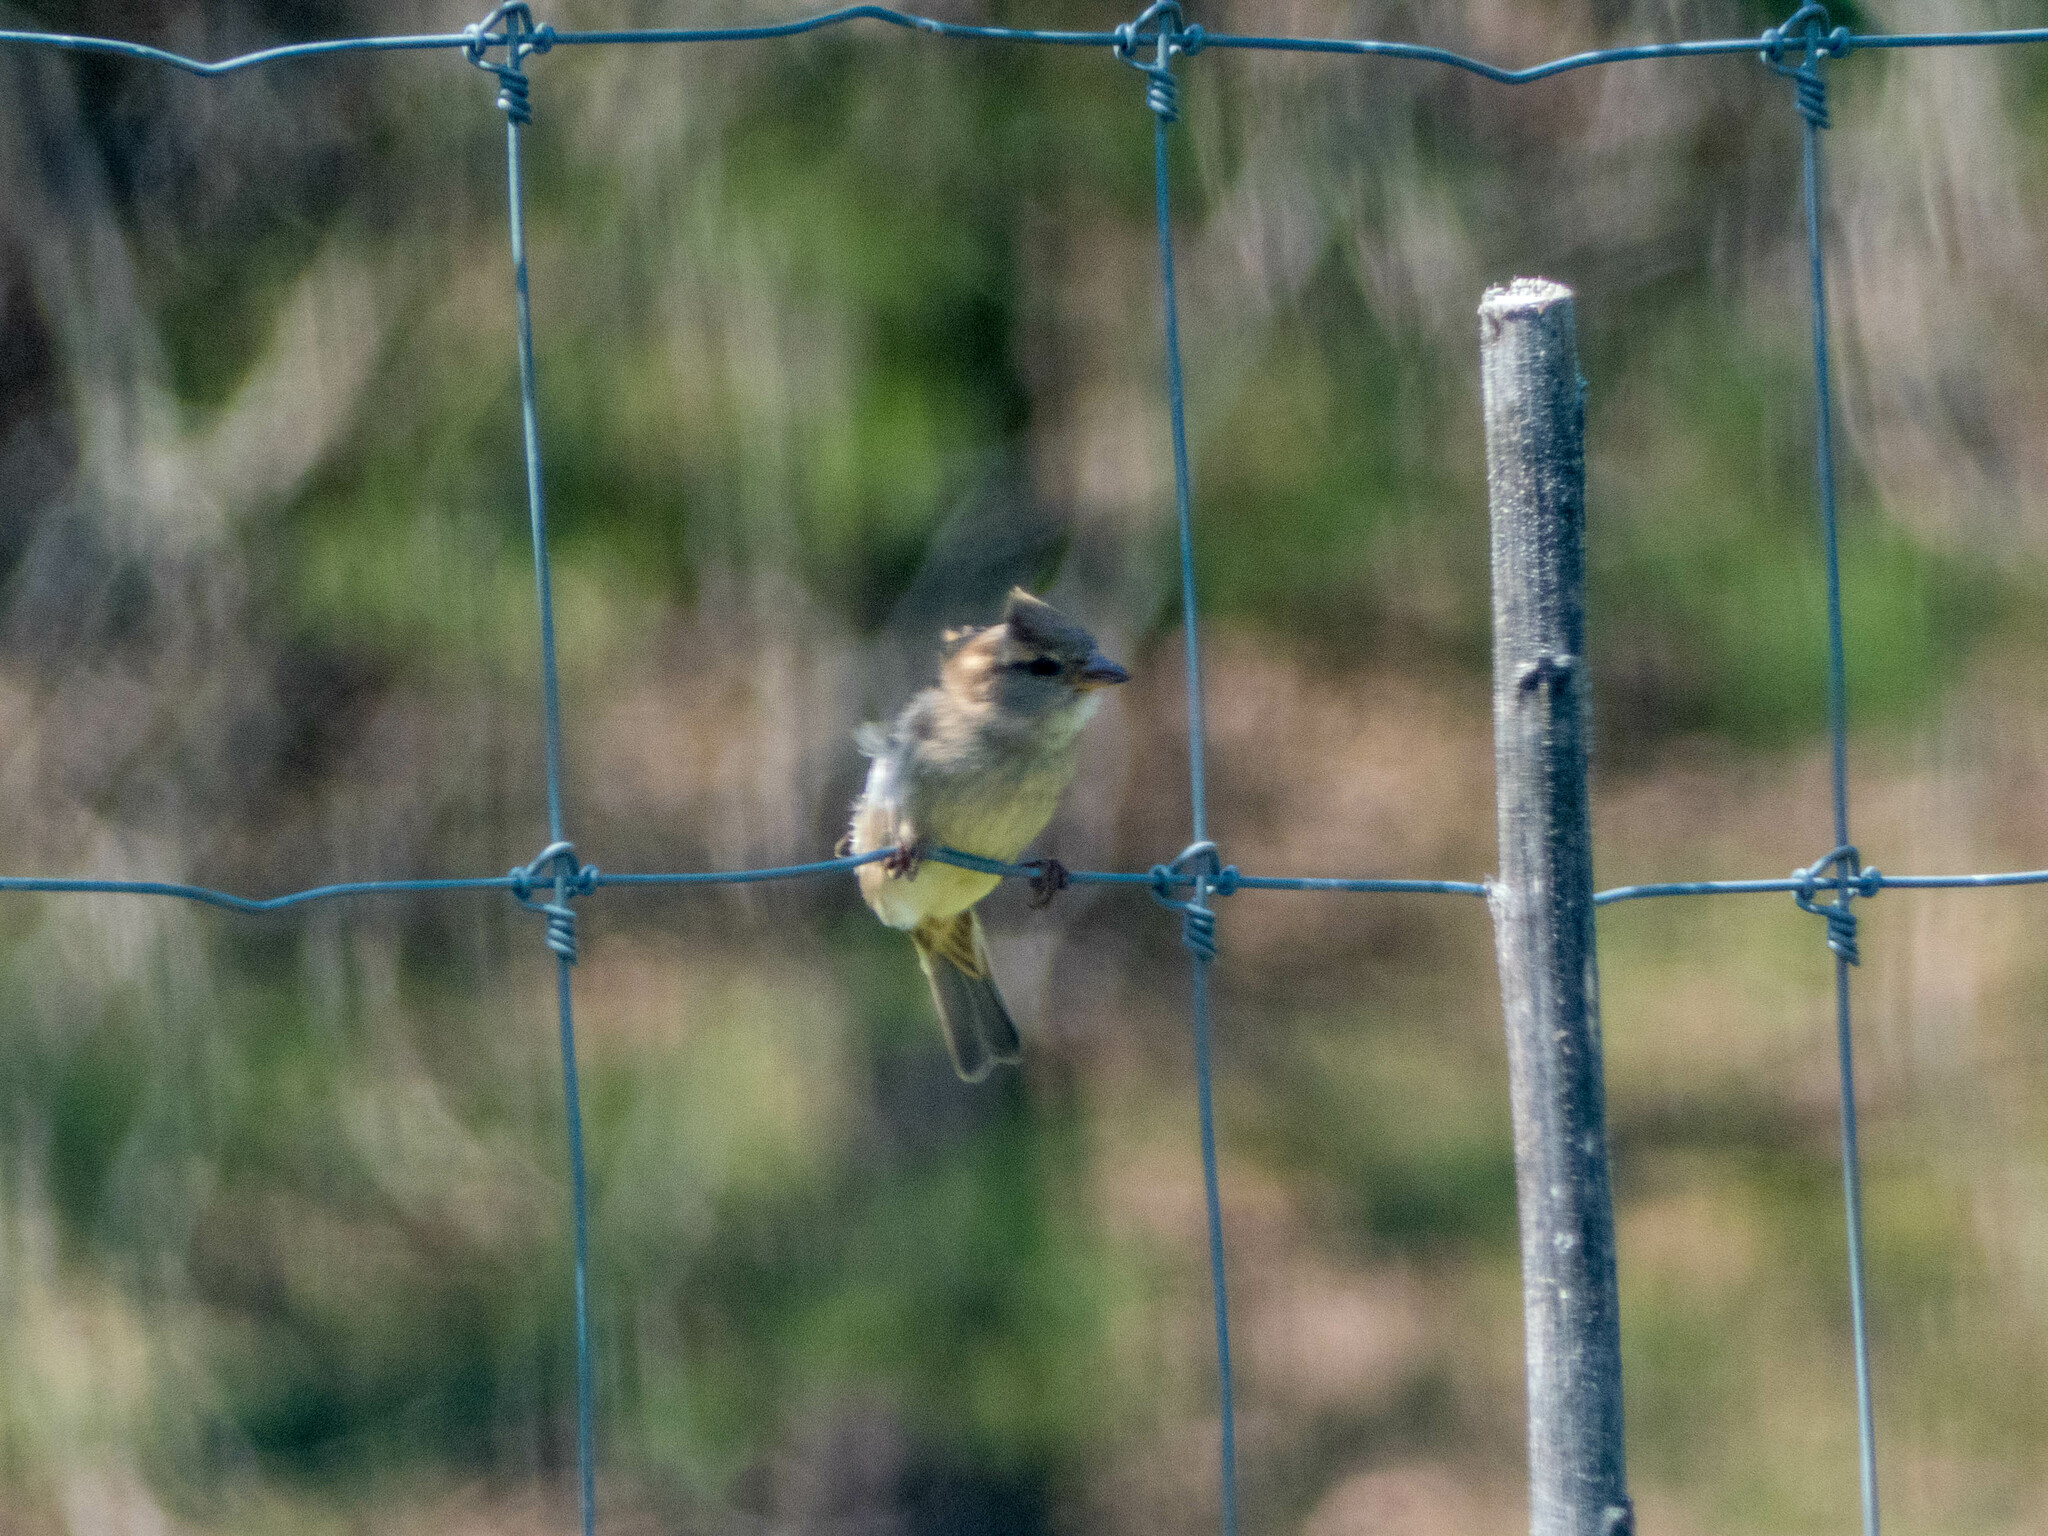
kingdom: Animalia
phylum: Chordata
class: Aves
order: Passeriformes
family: Passeridae
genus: Passer
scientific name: Passer domesticus
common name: House sparrow
